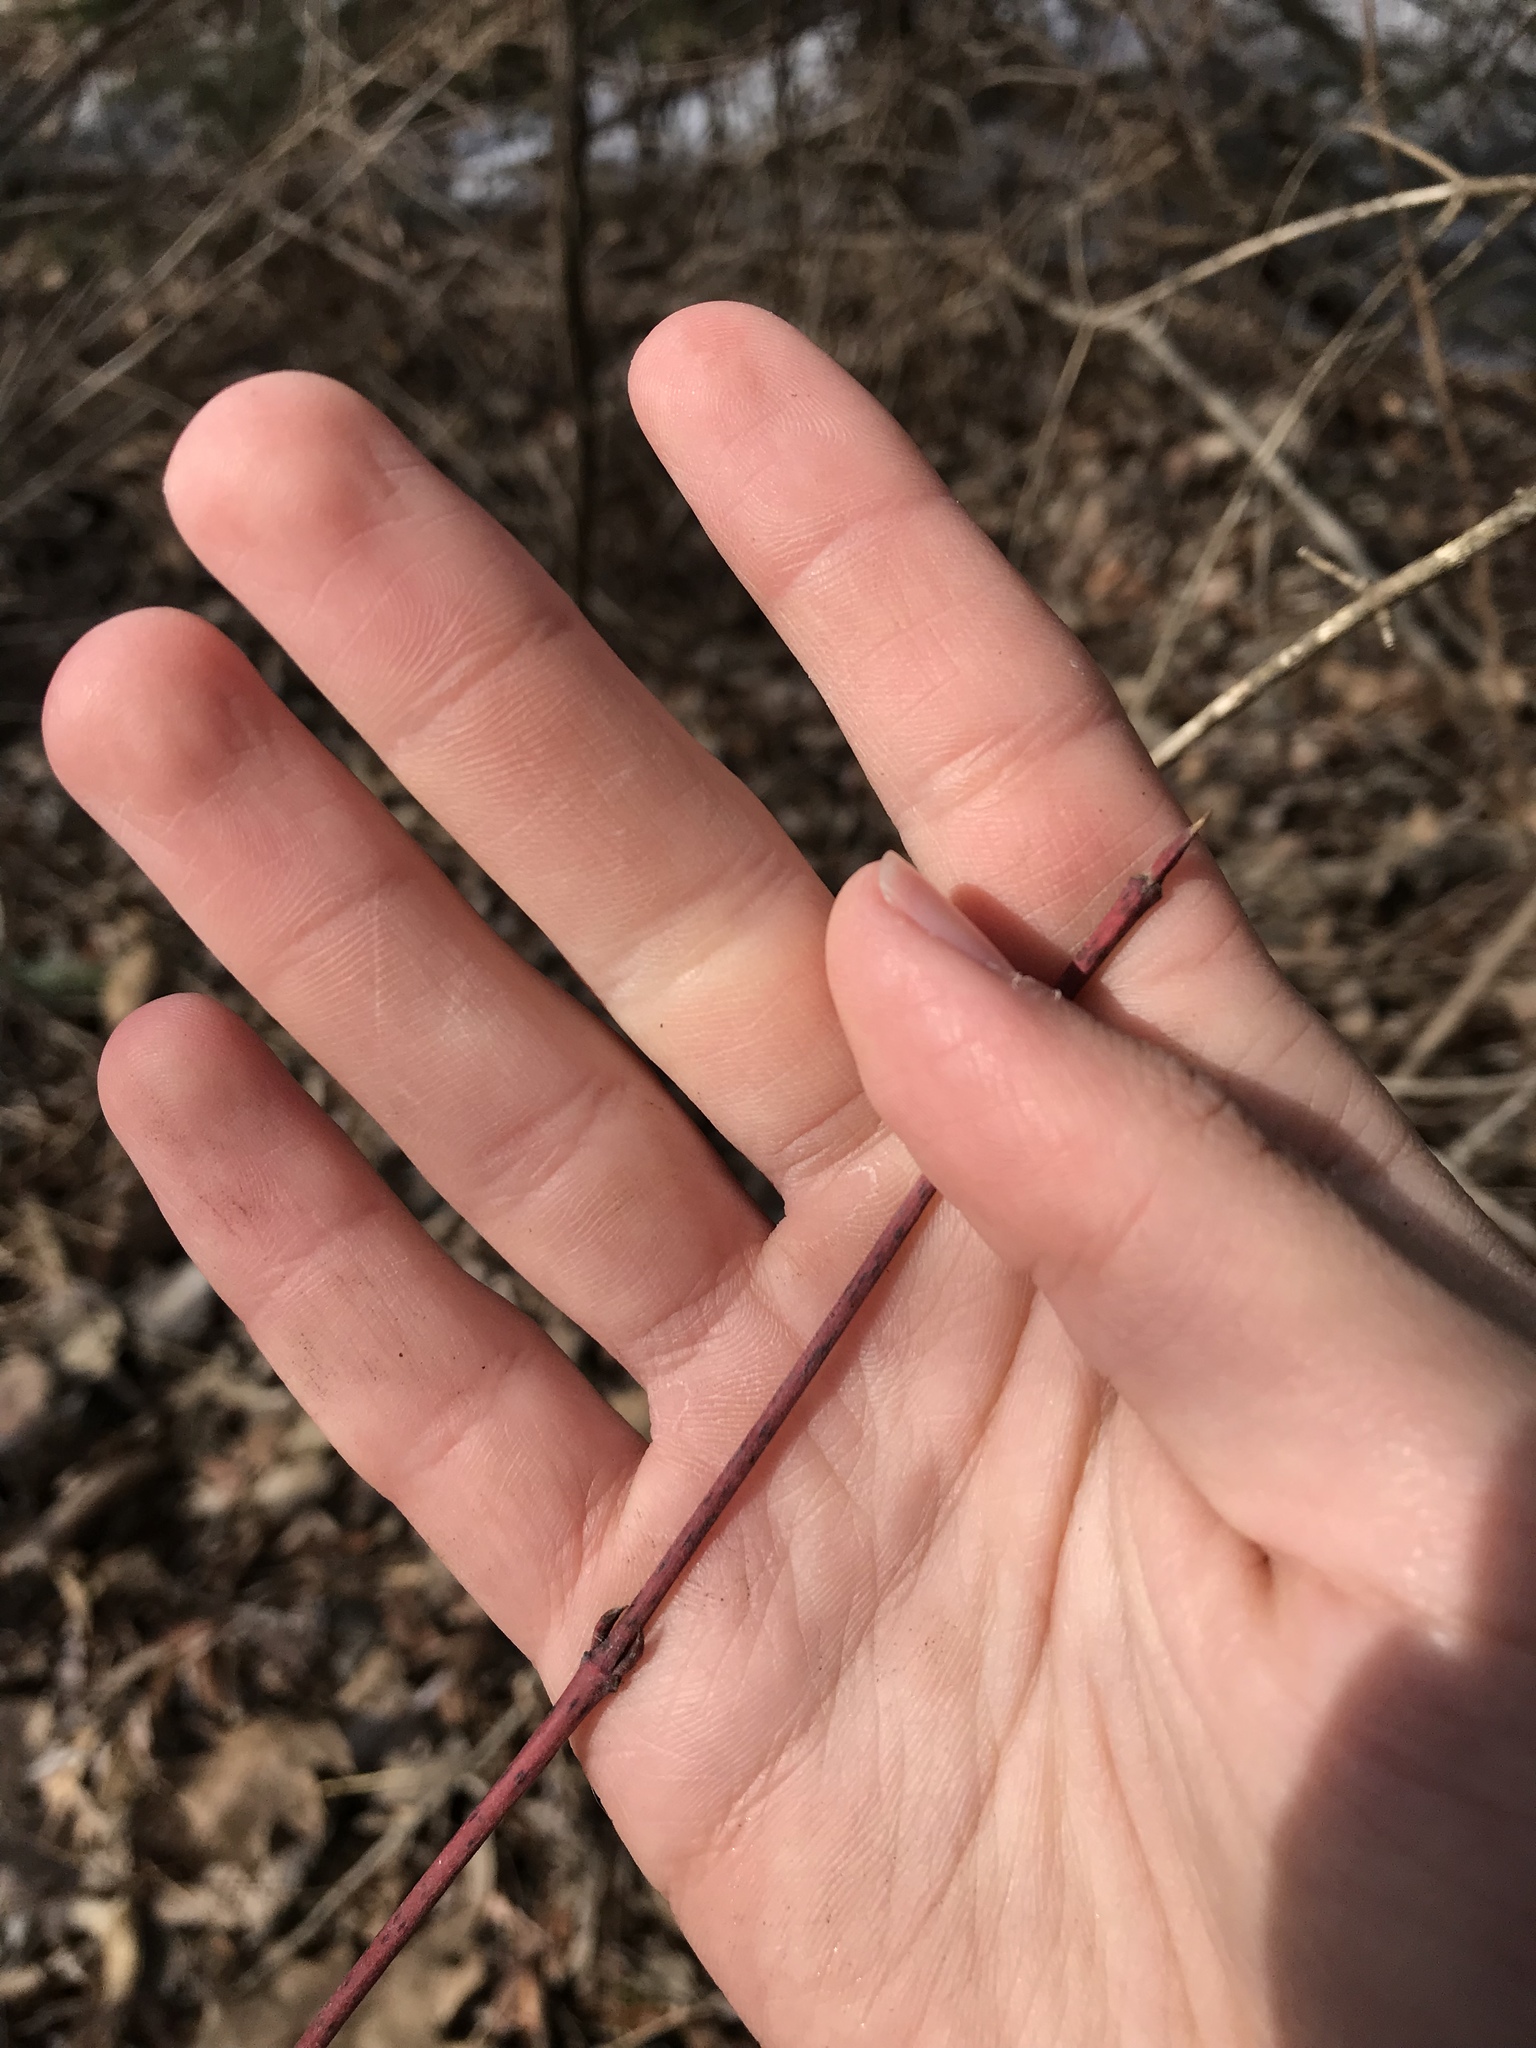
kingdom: Plantae
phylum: Tracheophyta
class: Magnoliopsida
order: Cornales
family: Cornaceae
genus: Cornus
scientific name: Cornus rugosa
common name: Round-leaf dogwood
